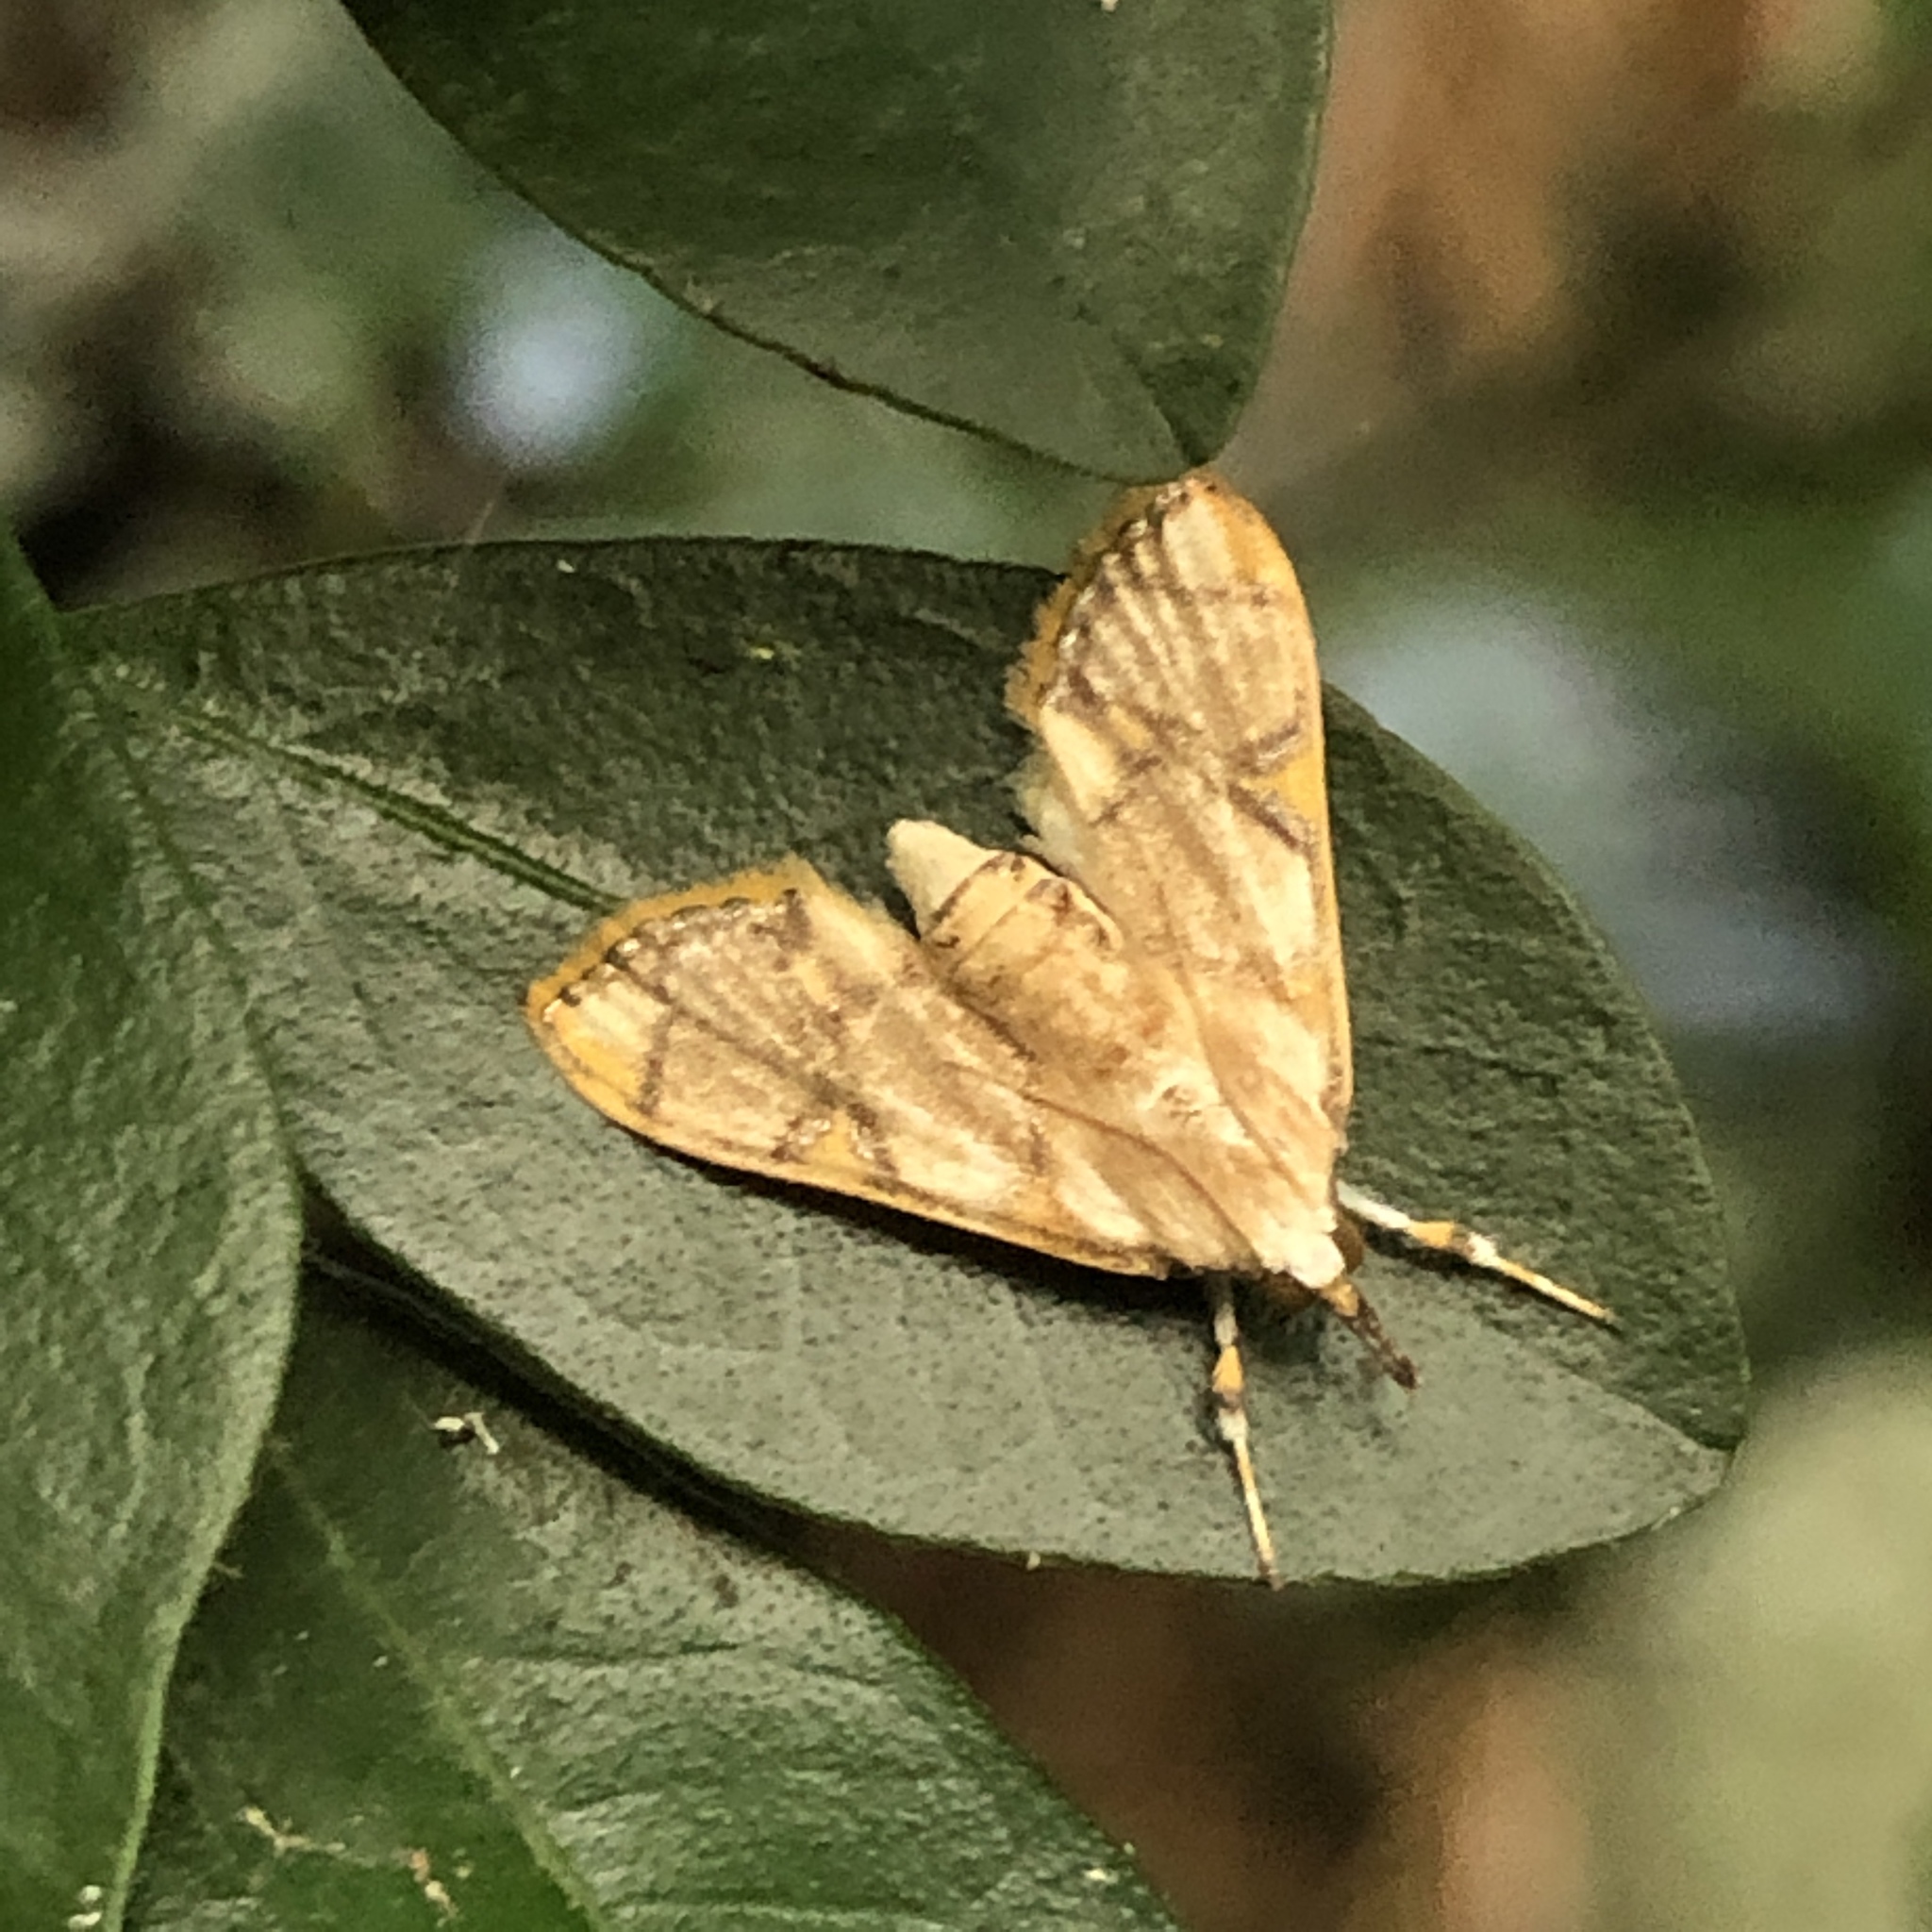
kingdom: Animalia
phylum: Arthropoda
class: Insecta
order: Lepidoptera
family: Crambidae
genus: Cirrhochrista
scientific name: Cirrhochrista kosemponialis
